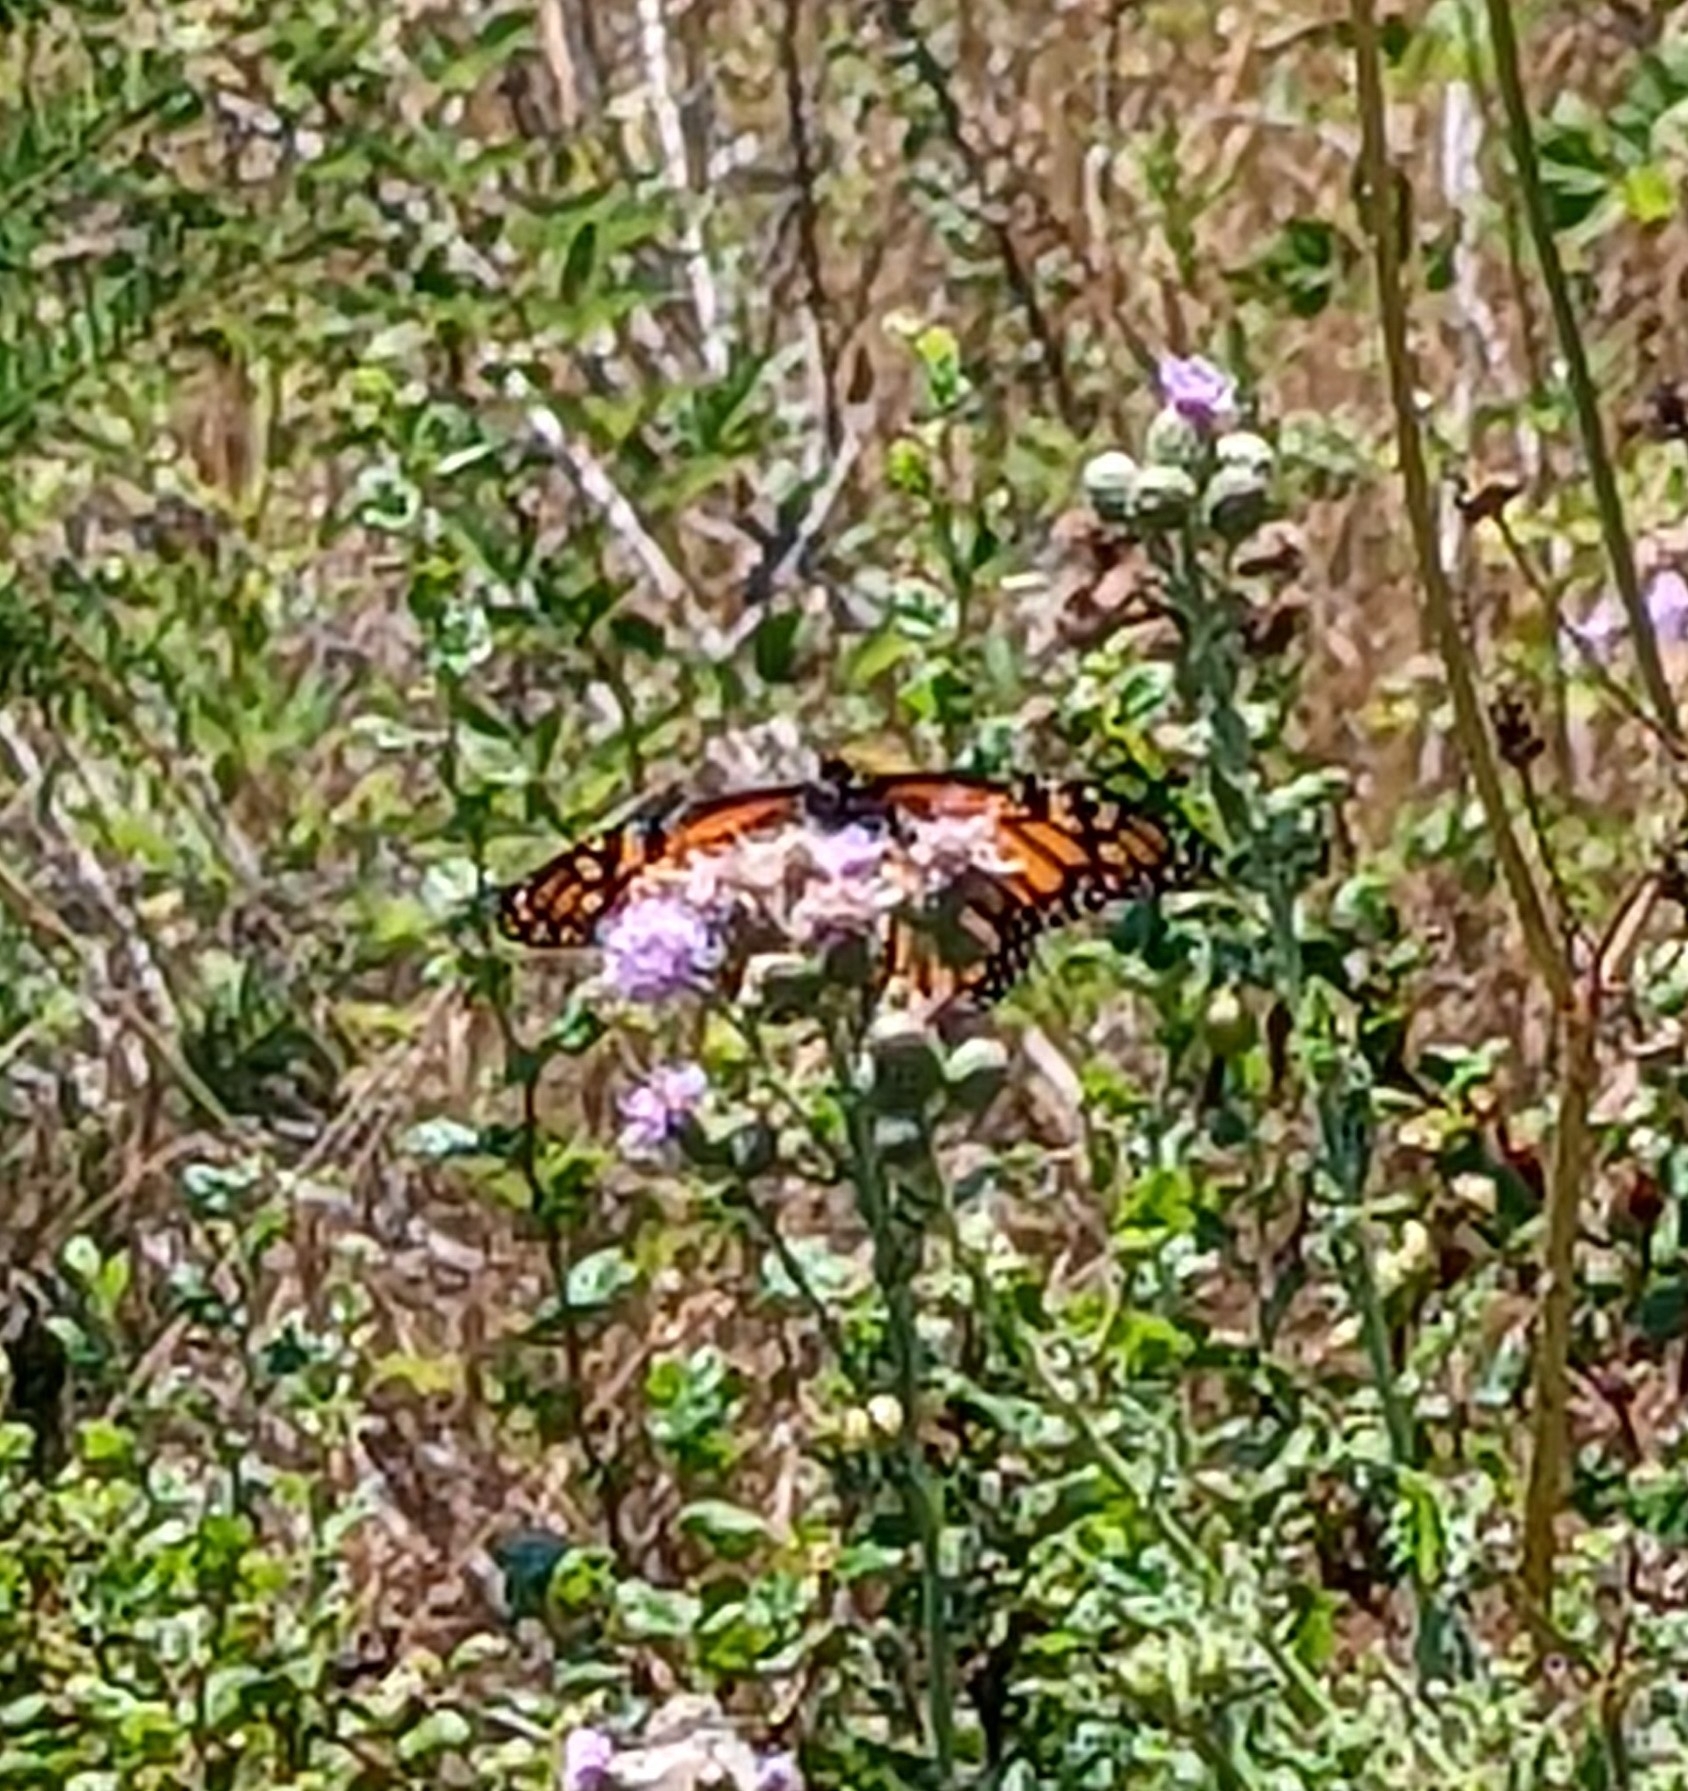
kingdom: Animalia
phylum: Arthropoda
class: Insecta
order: Lepidoptera
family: Nymphalidae
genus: Danaus
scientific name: Danaus plexippus
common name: Monarch
